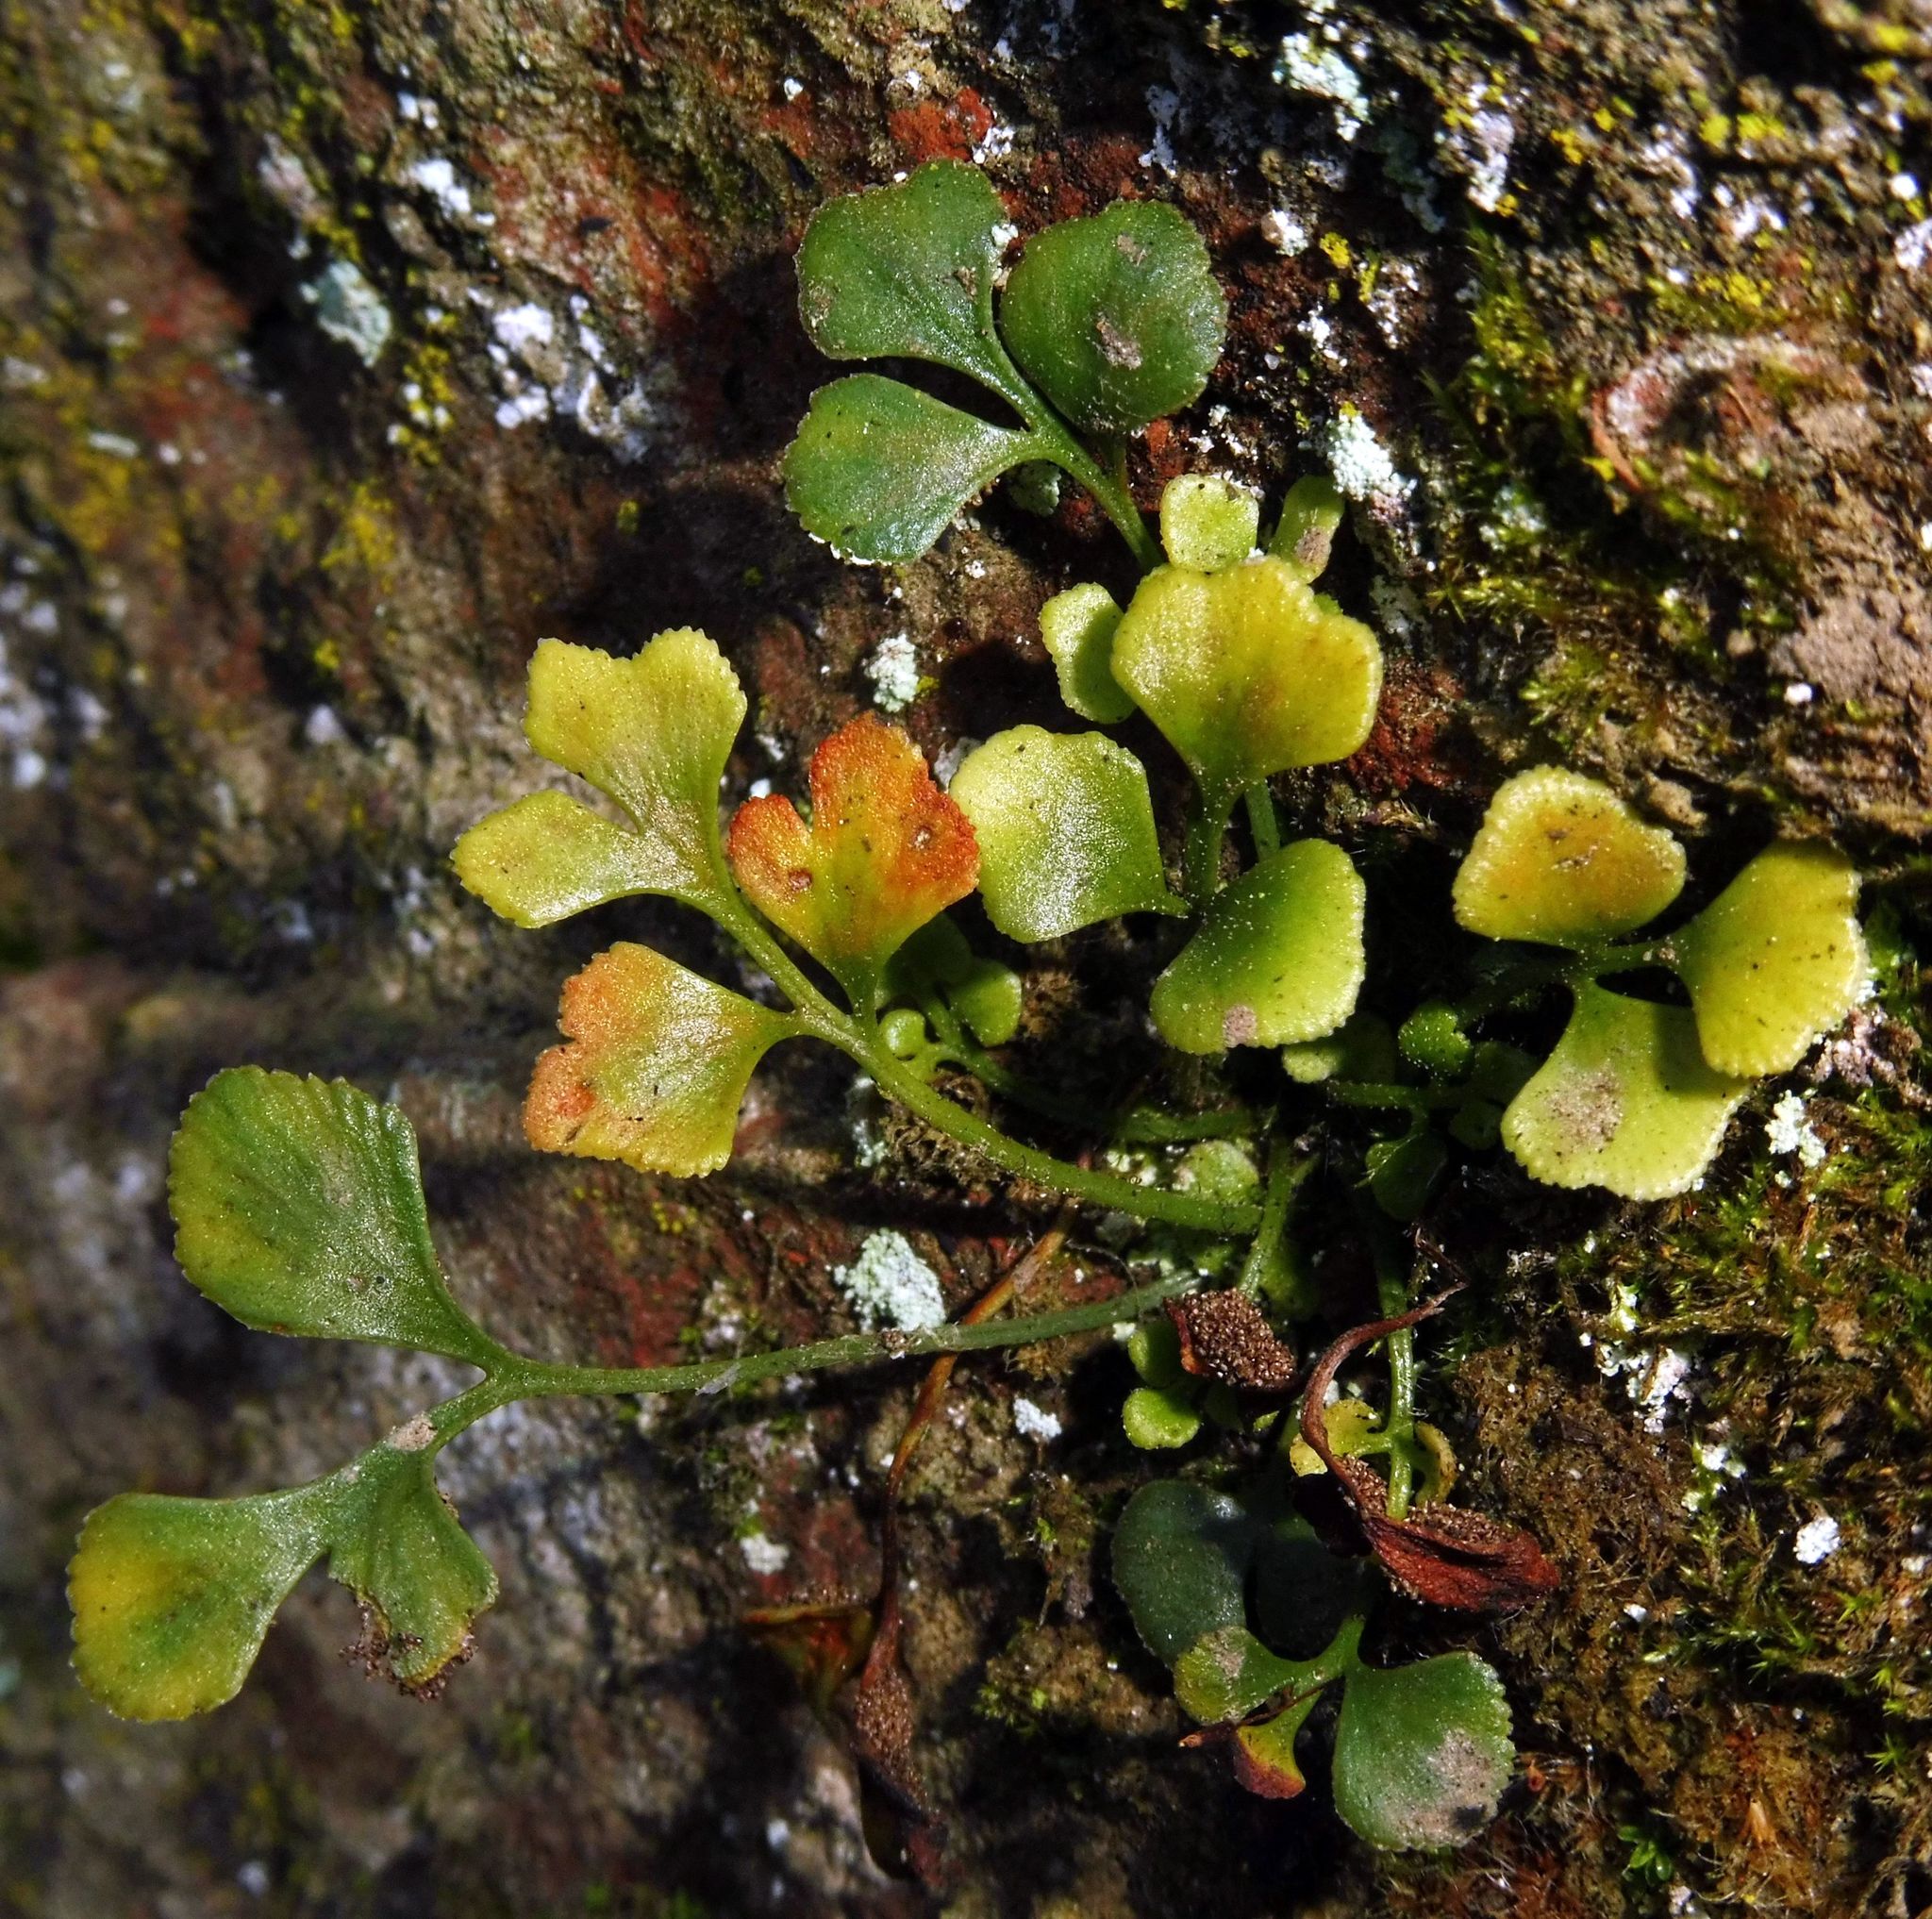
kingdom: Plantae
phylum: Tracheophyta
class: Polypodiopsida
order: Polypodiales
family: Aspleniaceae
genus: Asplenium
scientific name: Asplenium ruta-muraria
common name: Wall-rue
